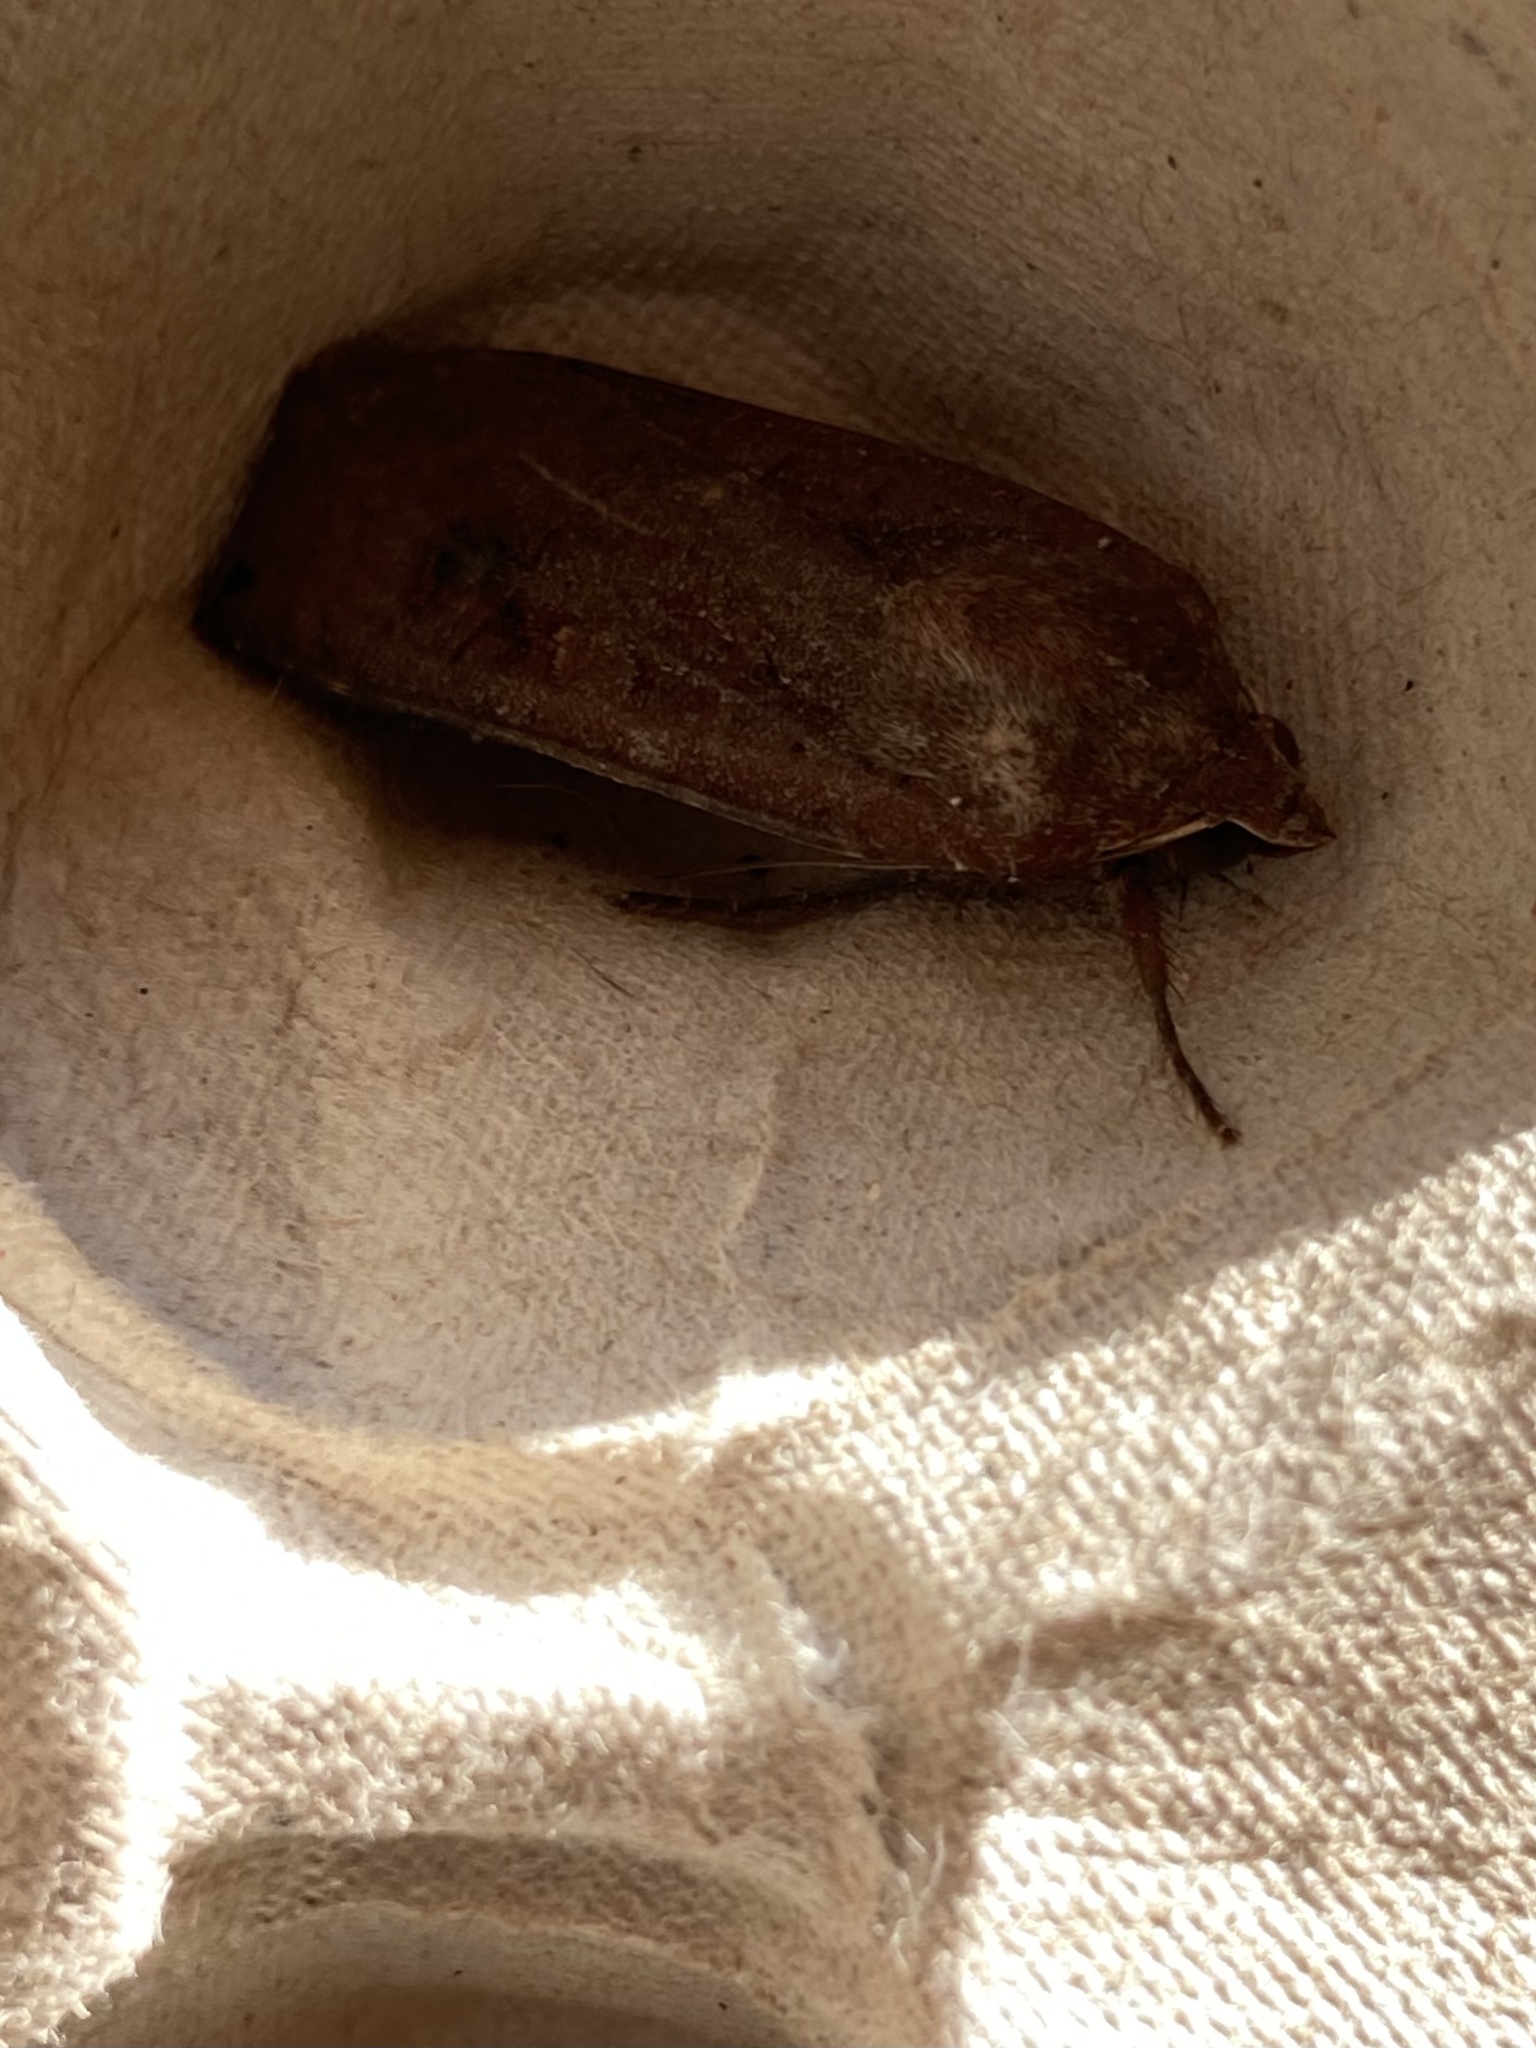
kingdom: Animalia
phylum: Arthropoda
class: Insecta
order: Lepidoptera
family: Noctuidae
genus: Noctua
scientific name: Noctua pronuba
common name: Large yellow underwing
